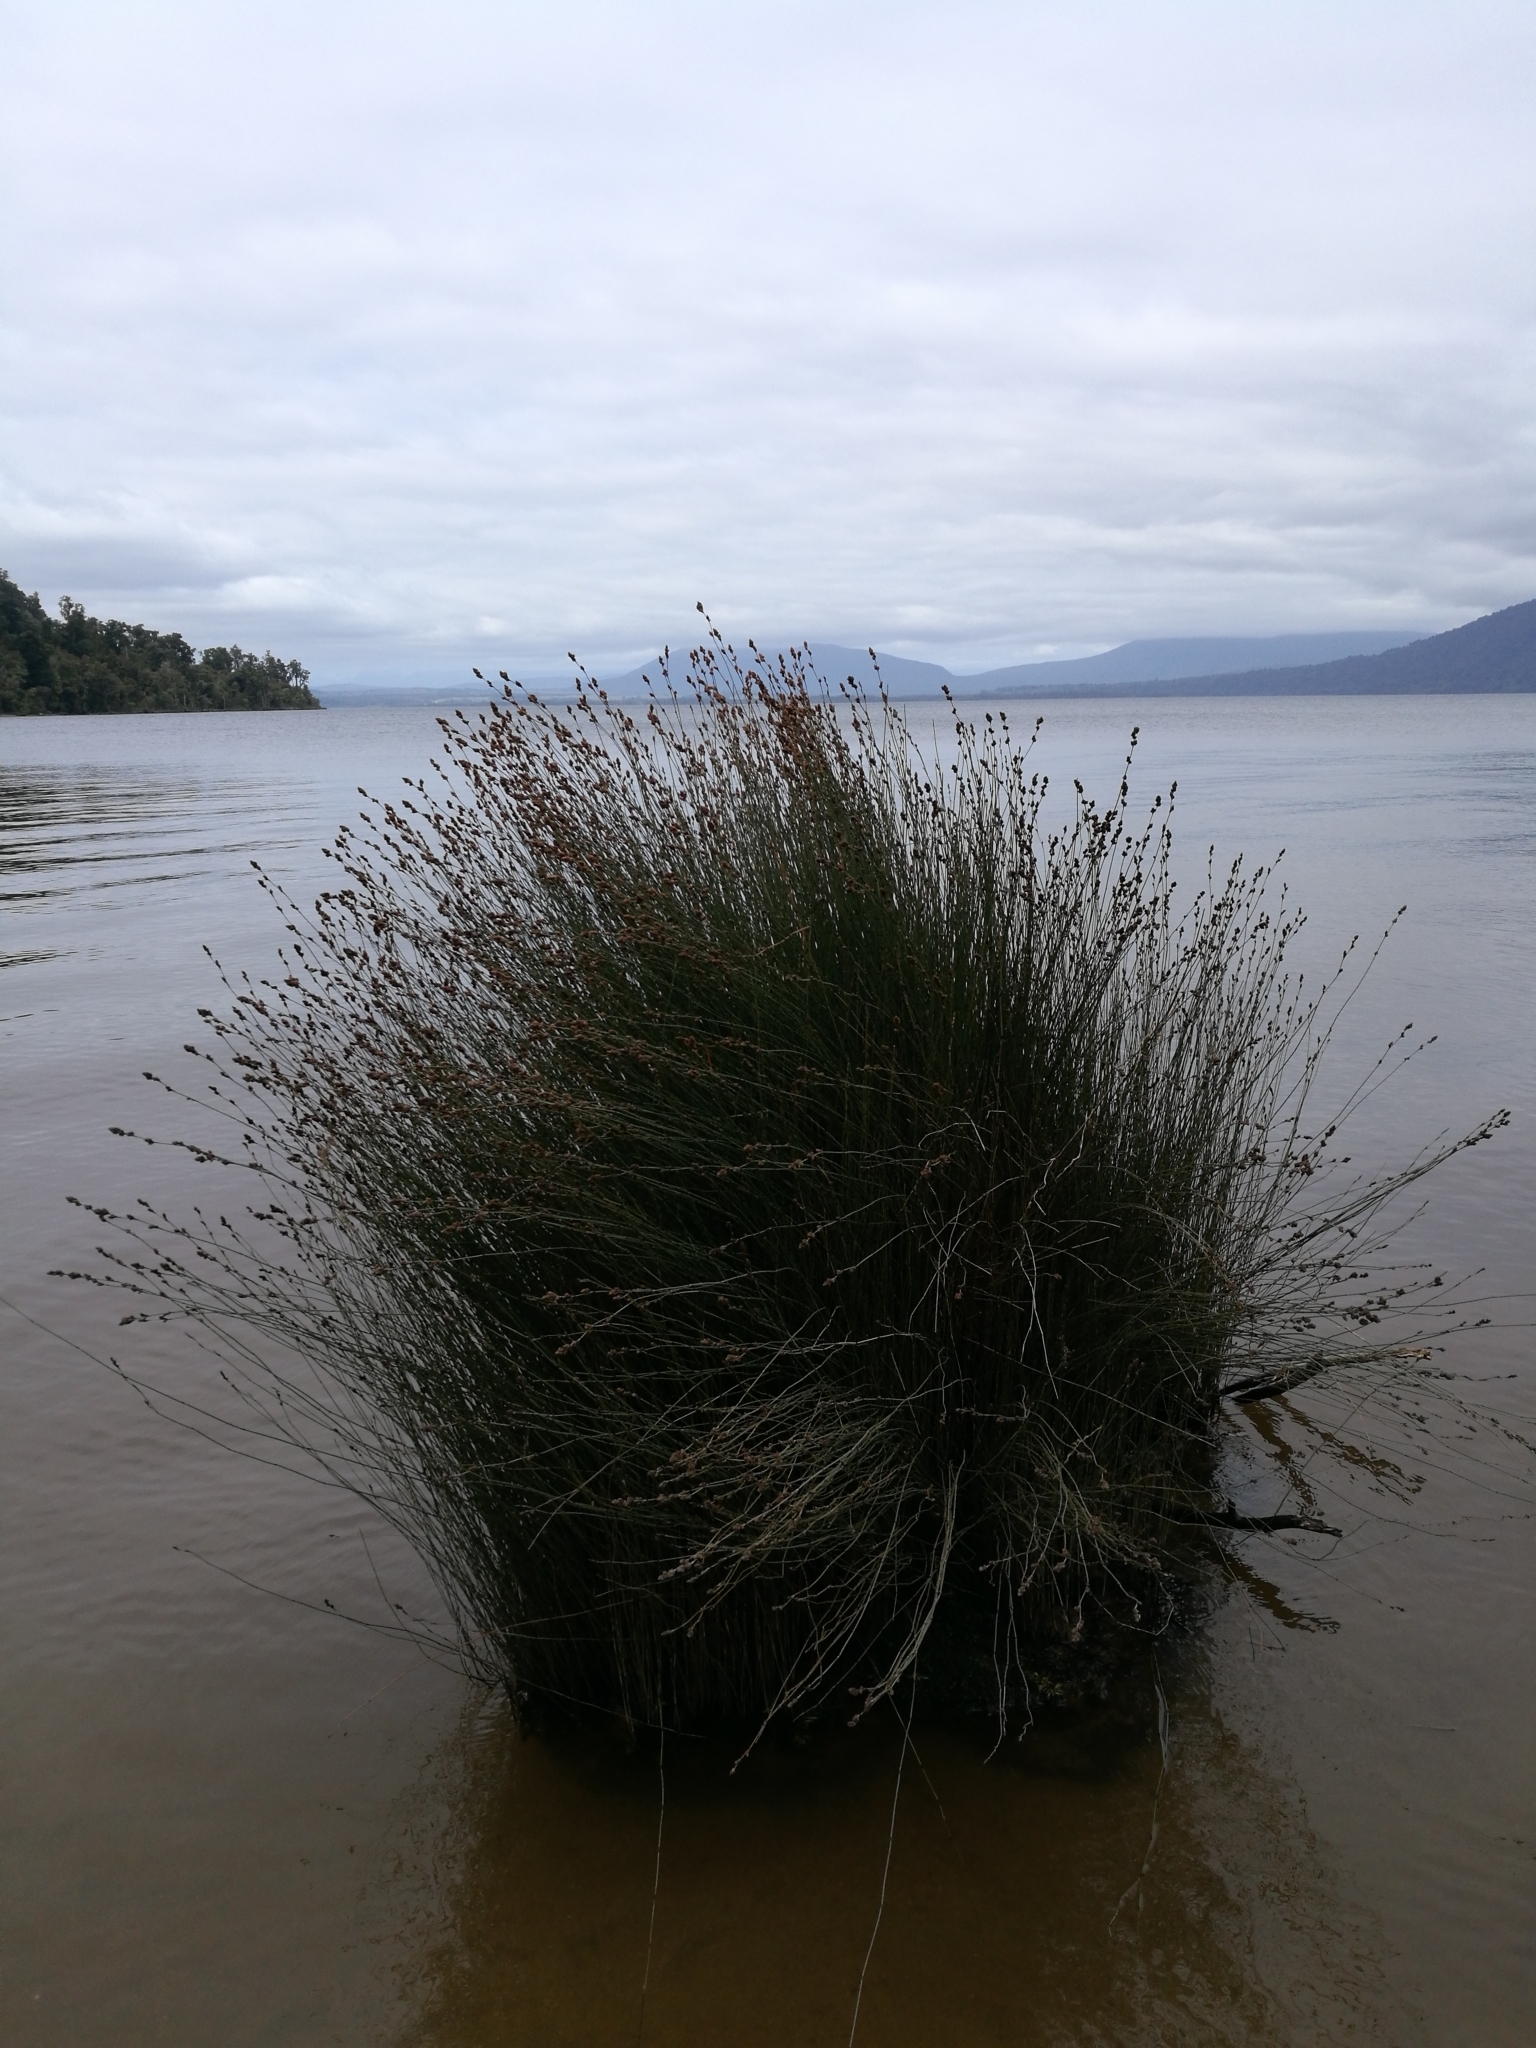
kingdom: Plantae
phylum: Tracheophyta
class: Liliopsida
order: Poales
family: Restionaceae
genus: Apodasmia
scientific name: Apodasmia similis
